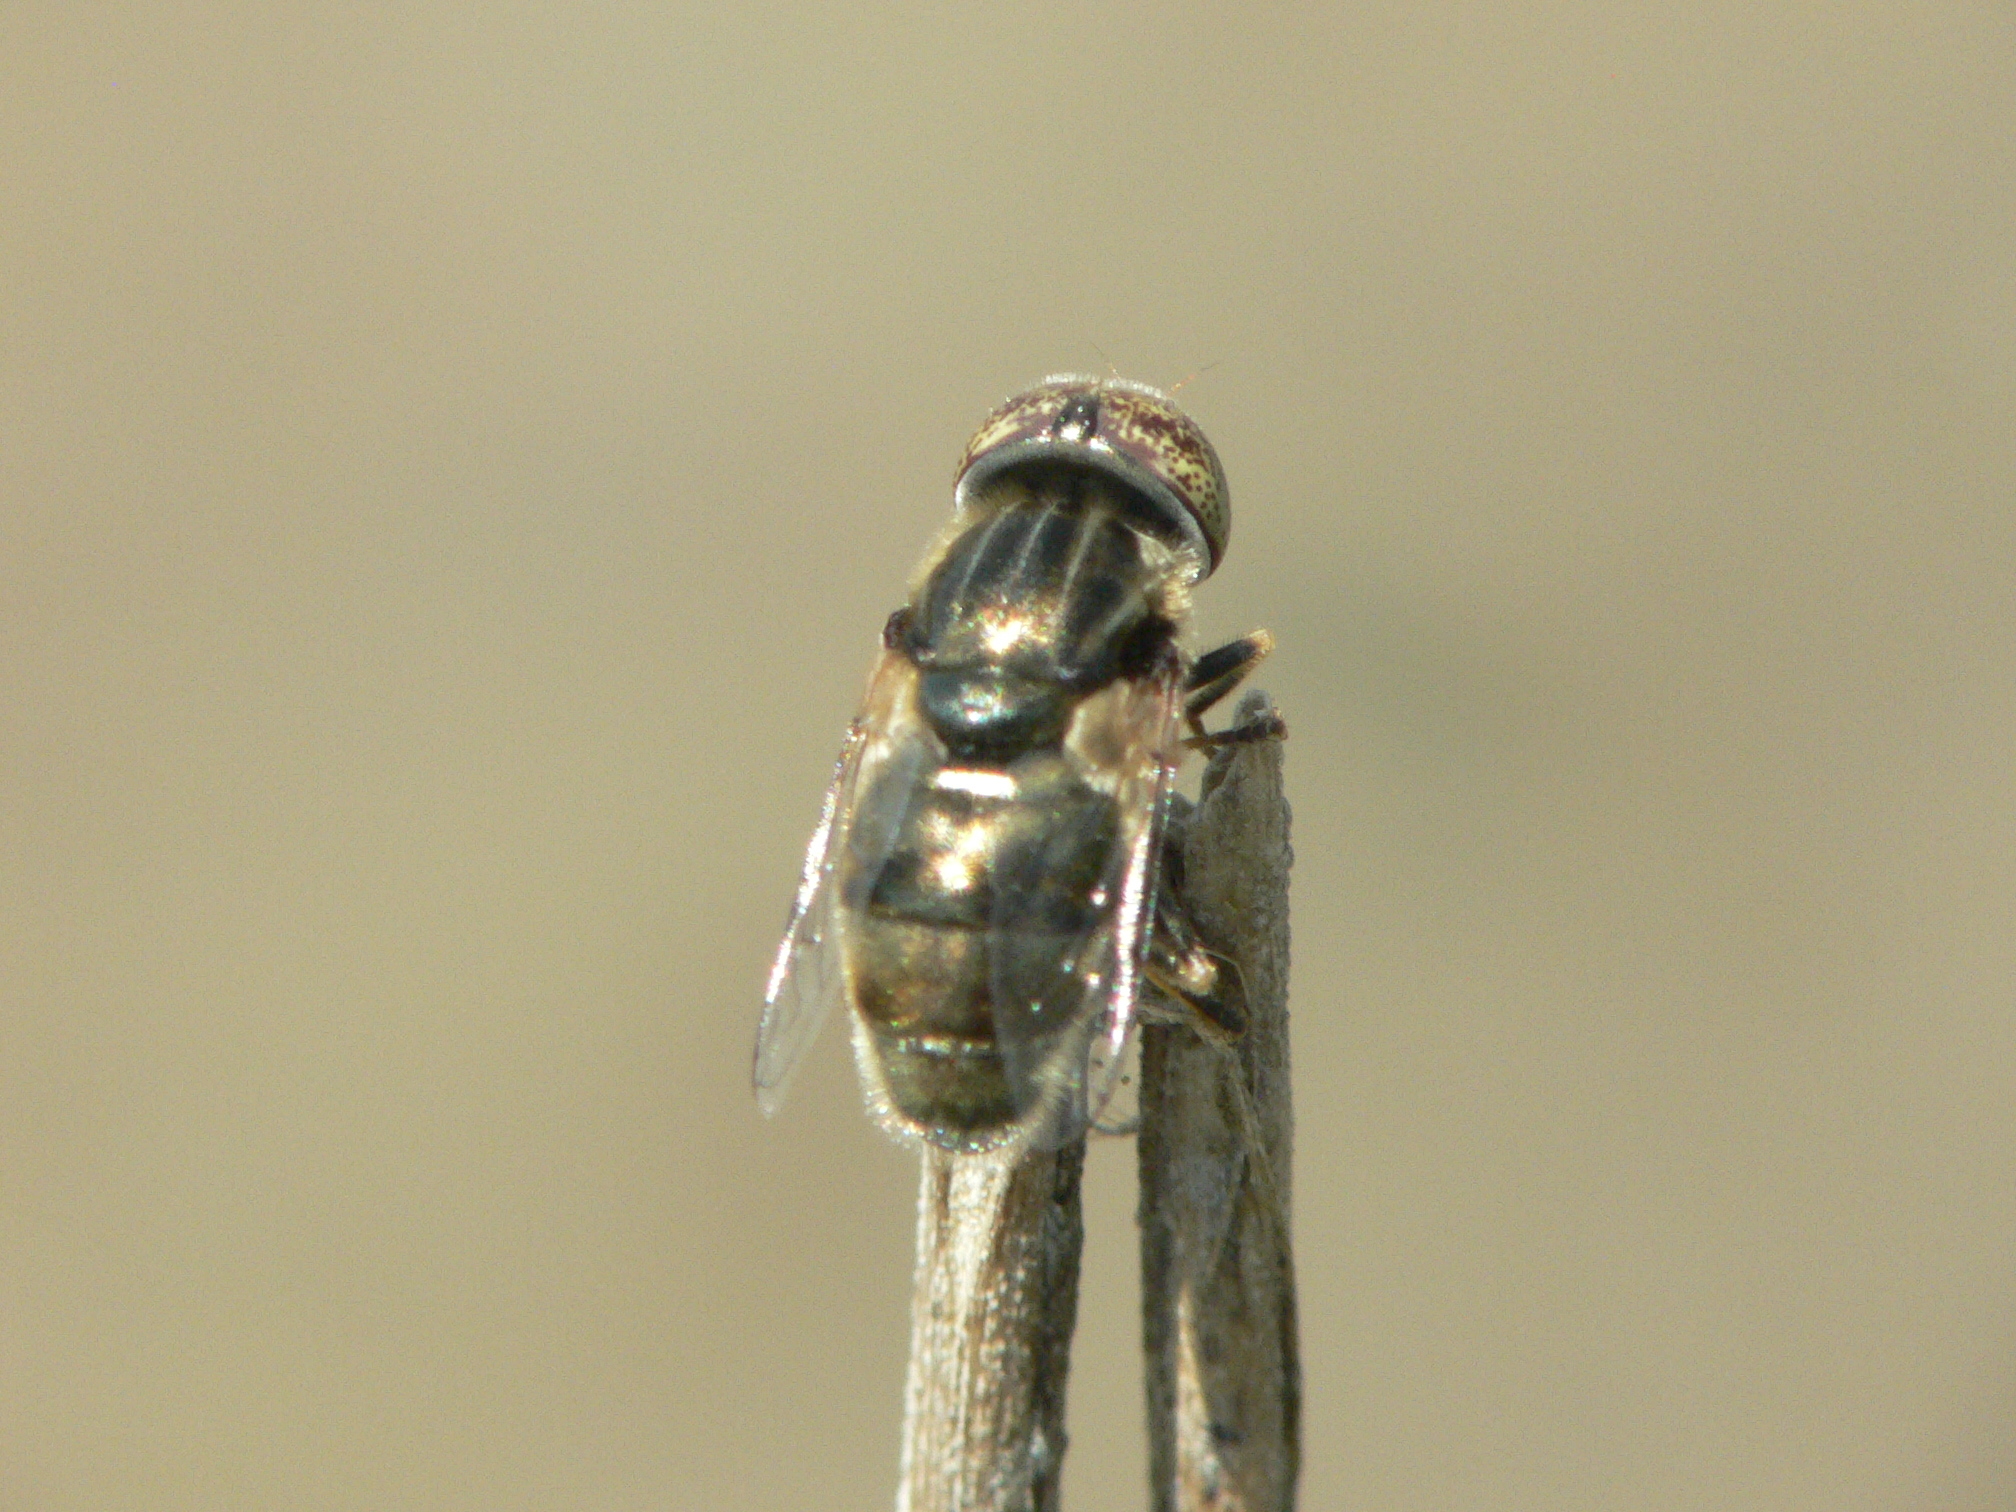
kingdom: Animalia
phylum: Arthropoda
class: Insecta
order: Diptera
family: Syrphidae
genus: Eristalinus
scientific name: Eristalinus aeneus
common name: Syrphid fly
